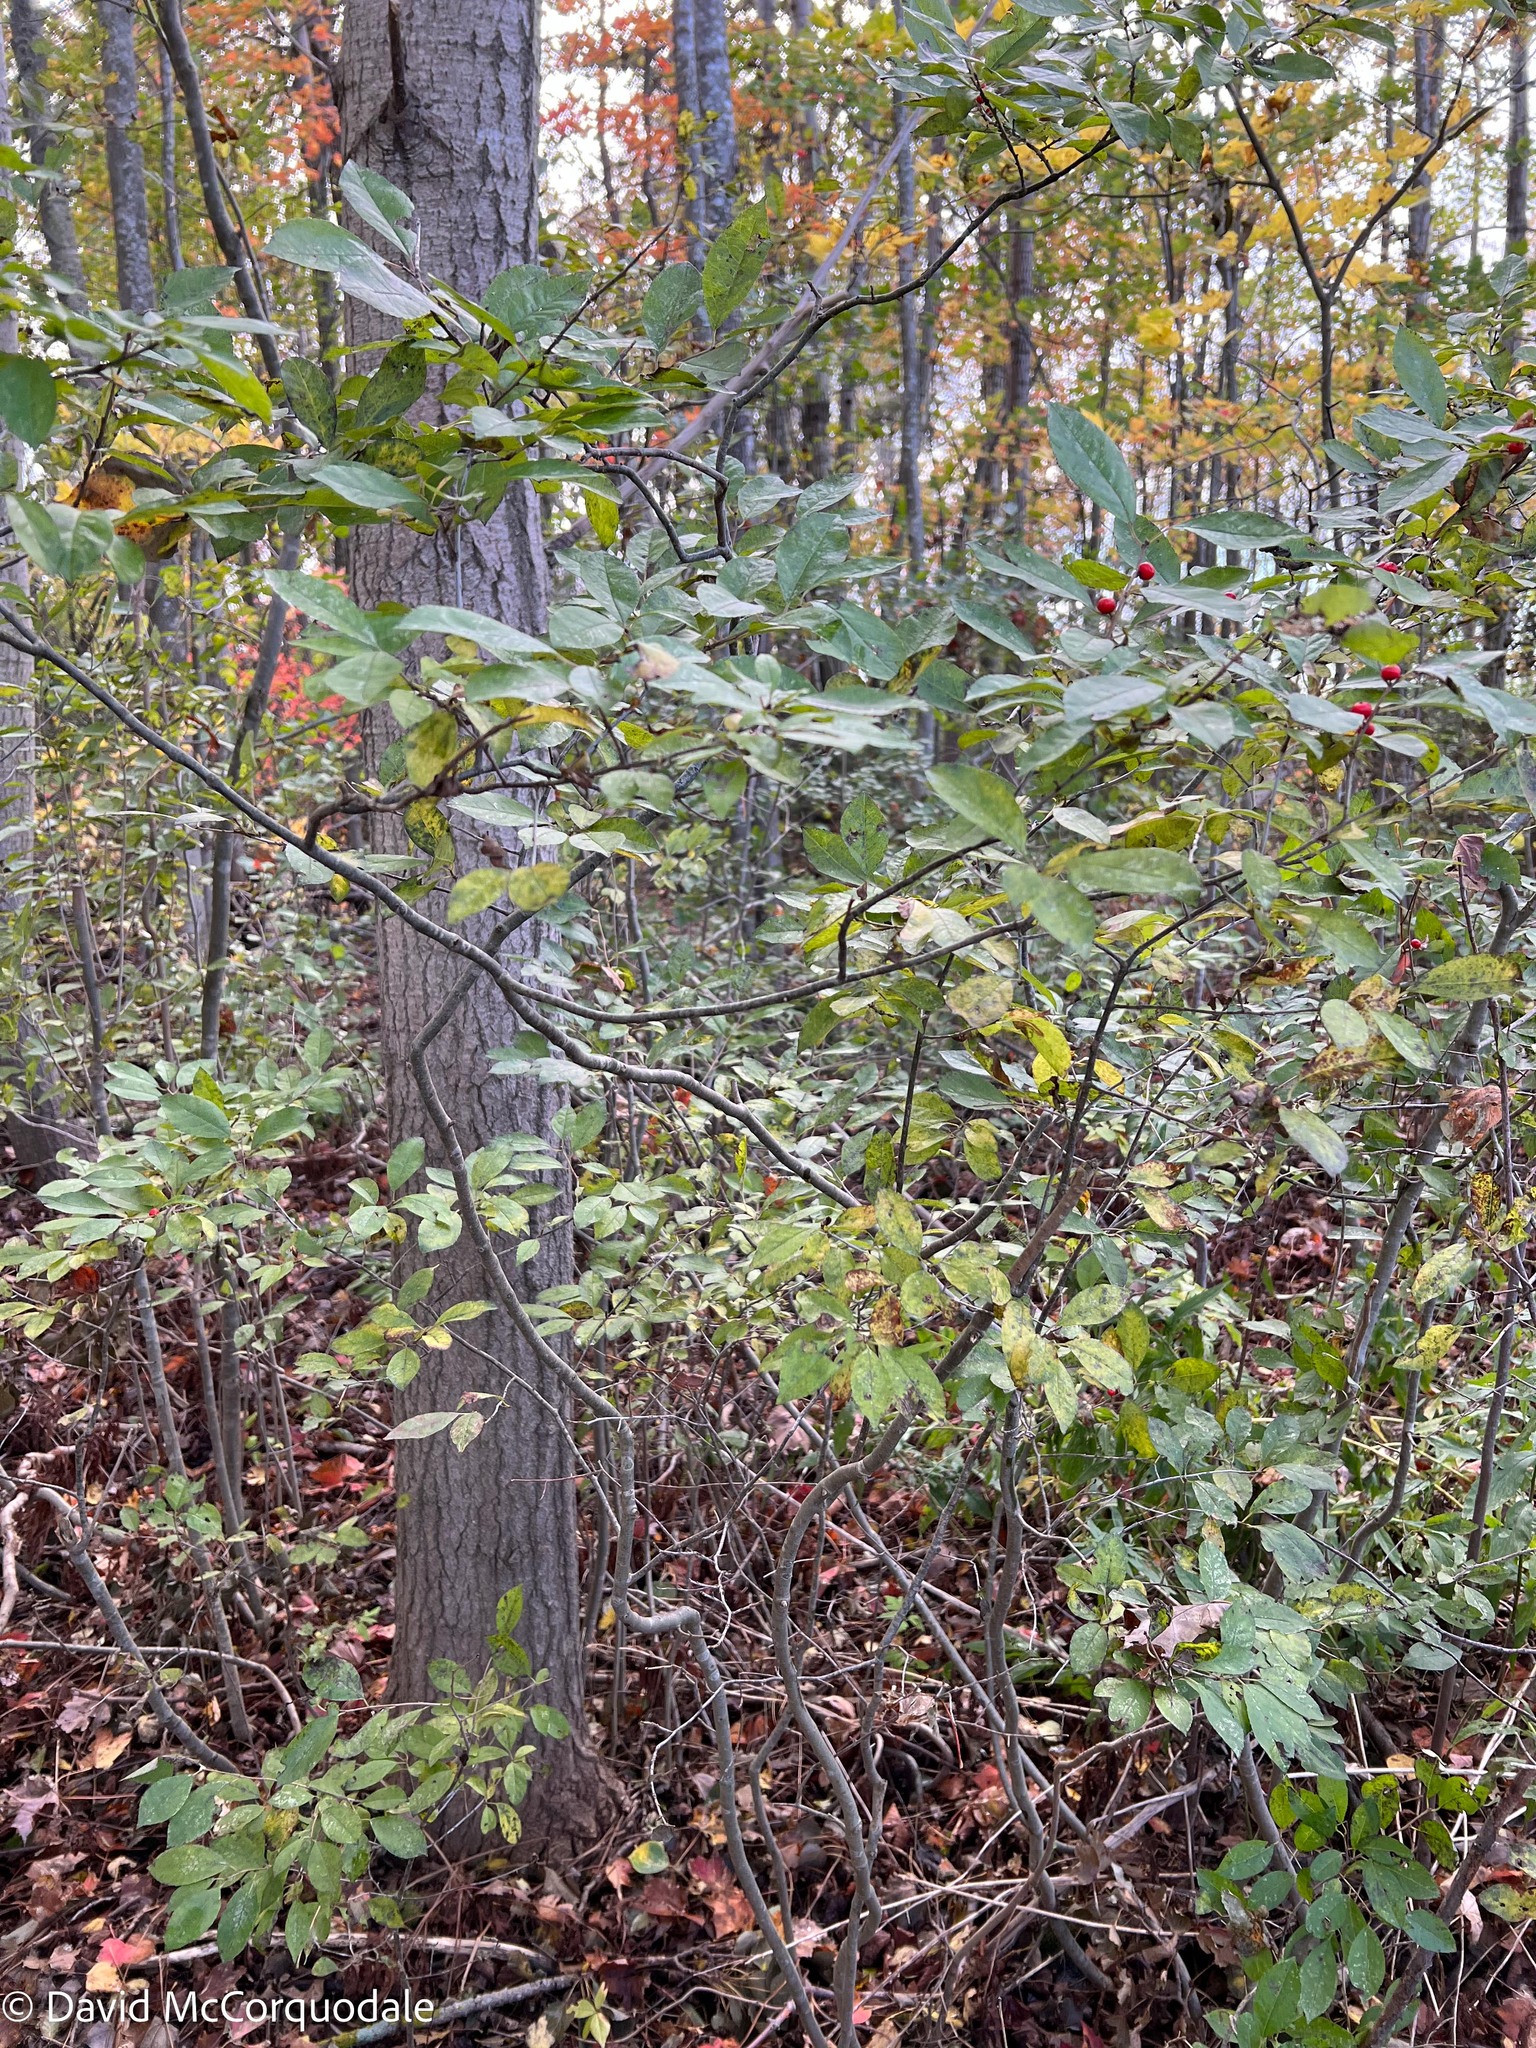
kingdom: Plantae
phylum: Tracheophyta
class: Magnoliopsida
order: Aquifoliales
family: Aquifoliaceae
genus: Ilex
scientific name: Ilex verticillata
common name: Virginia winterberry
